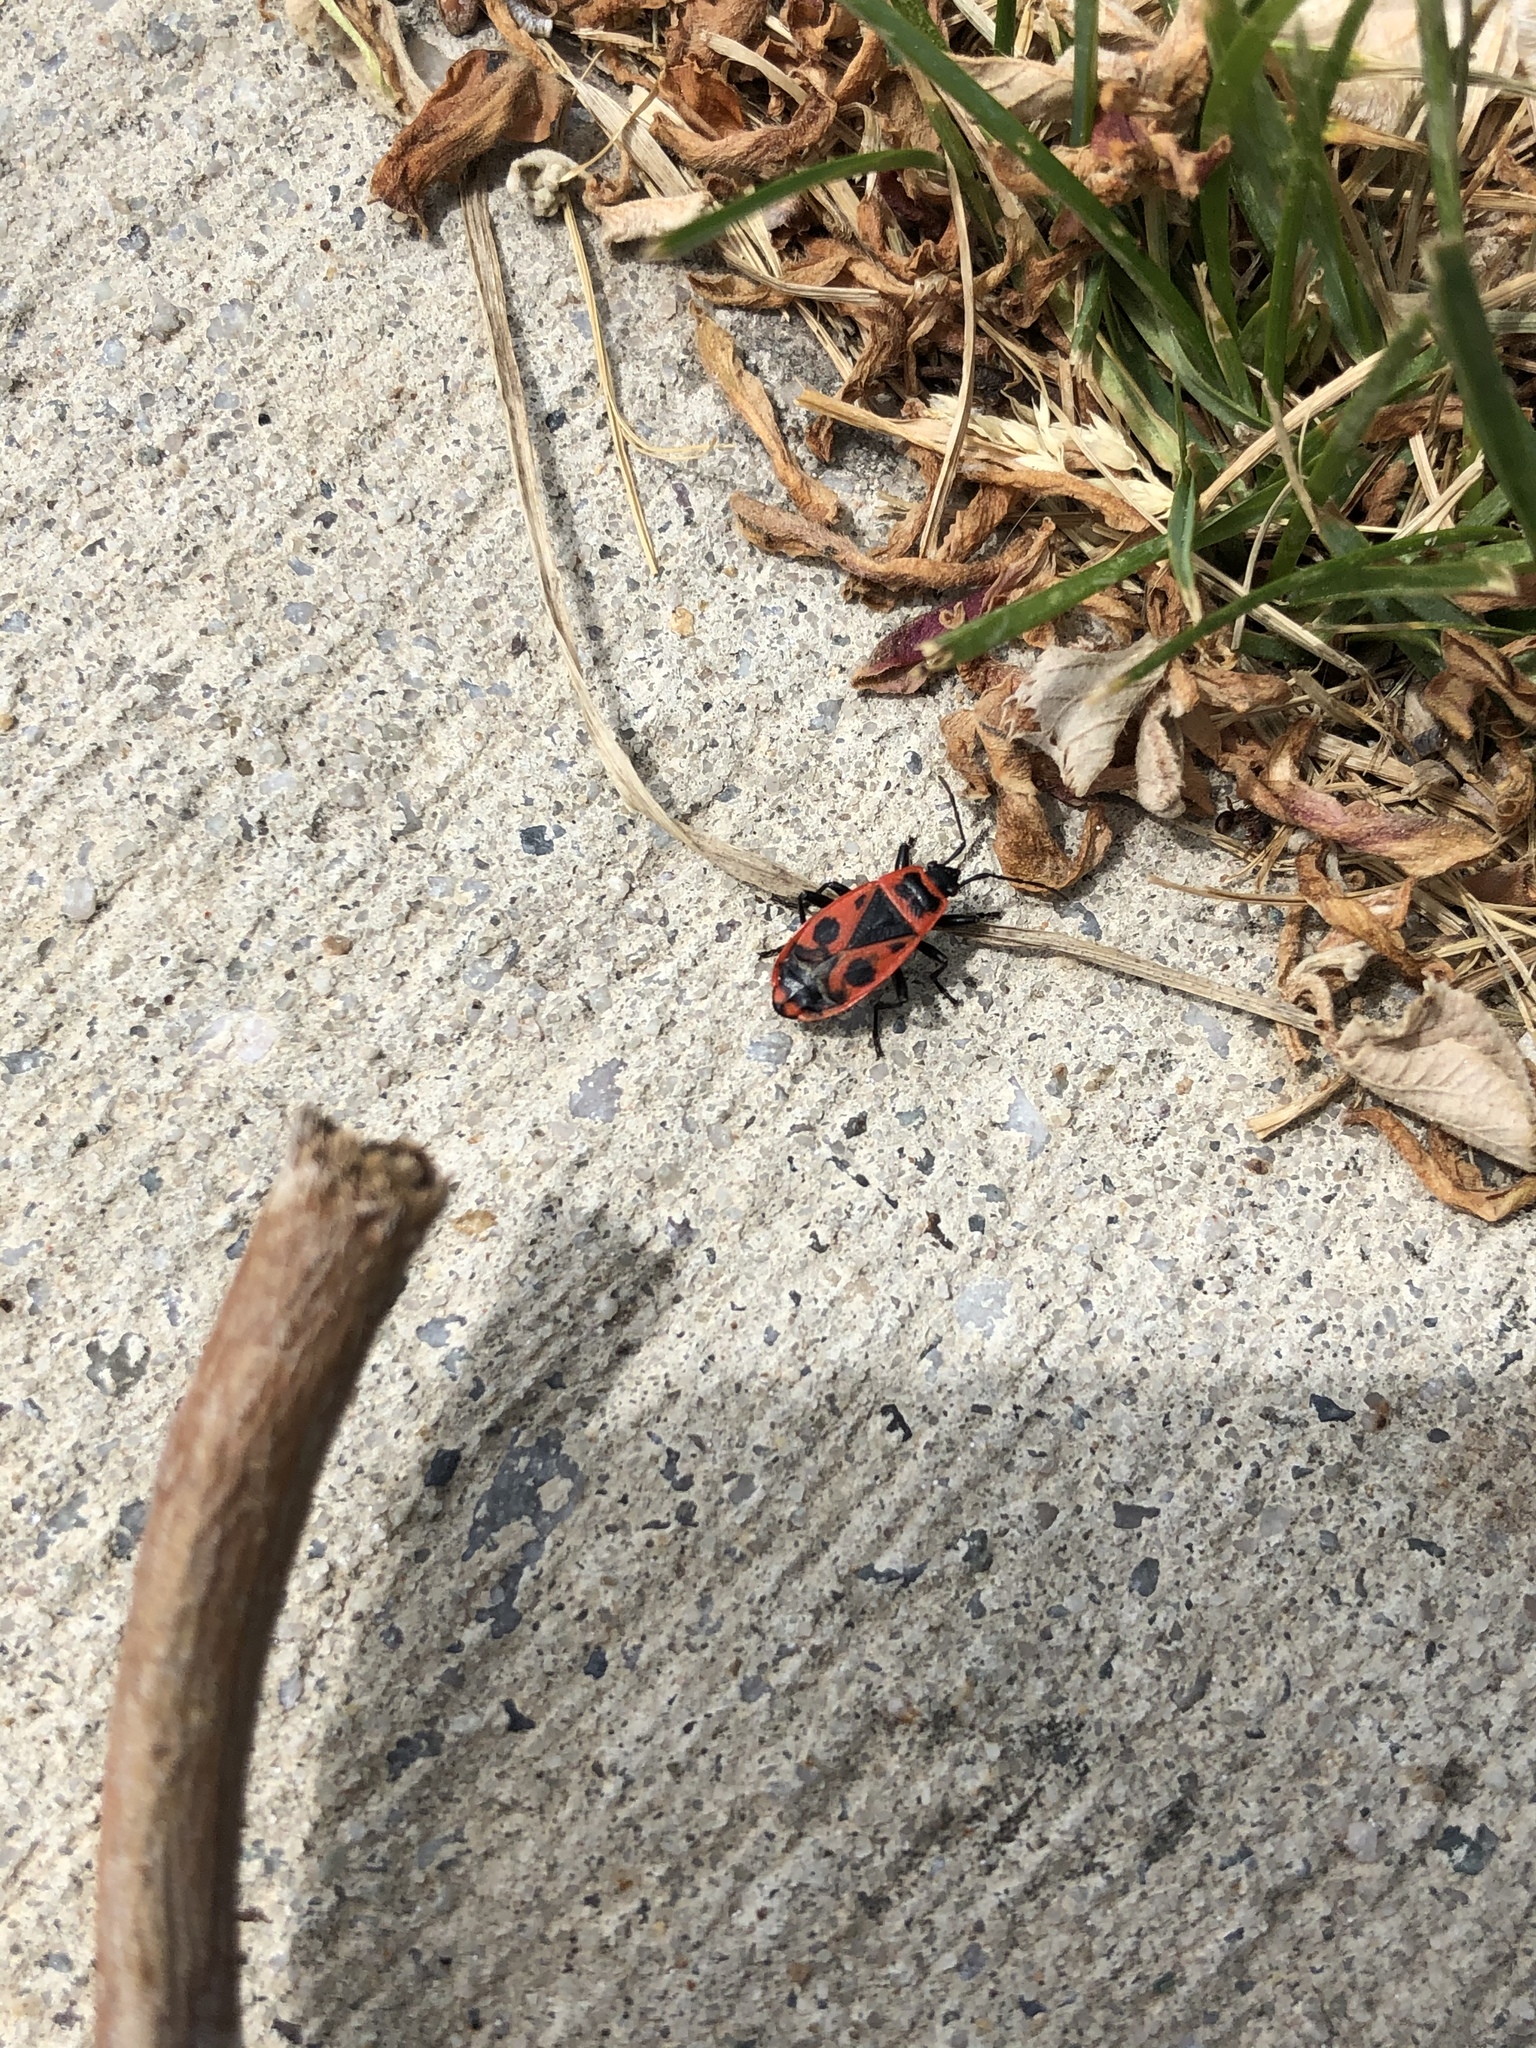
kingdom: Animalia
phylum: Arthropoda
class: Insecta
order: Hemiptera
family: Pyrrhocoridae
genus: Pyrrhocoris
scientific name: Pyrrhocoris apterus
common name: Firebug
